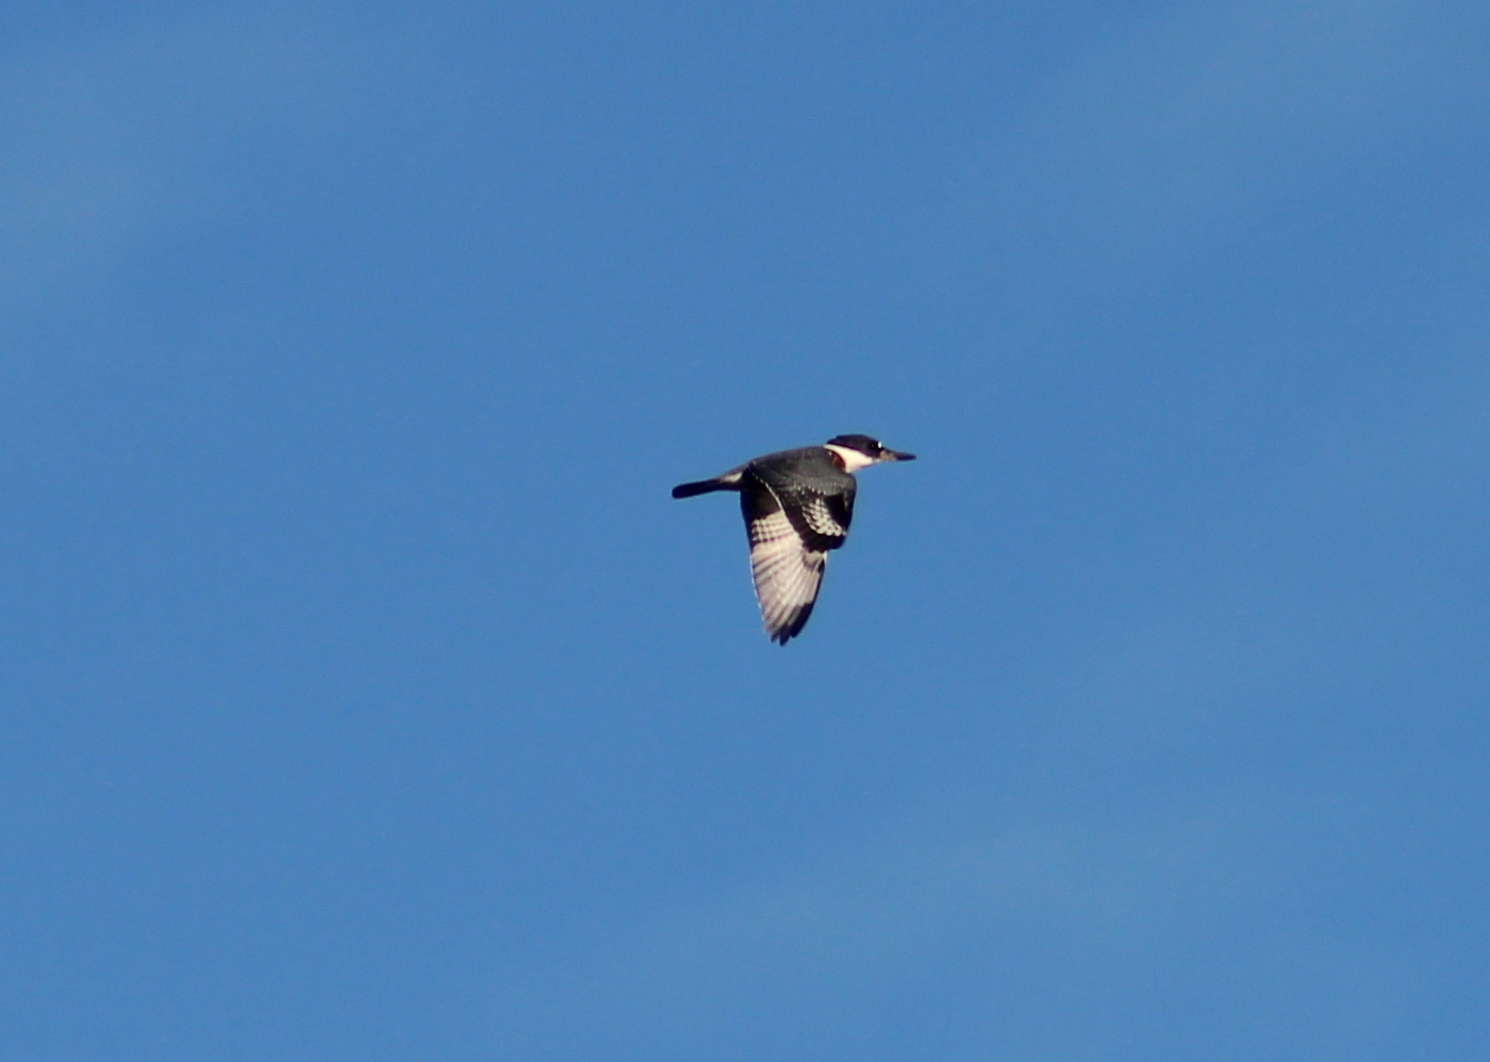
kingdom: Animalia
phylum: Chordata
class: Aves
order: Coraciiformes
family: Alcedinidae
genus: Megaceryle
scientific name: Megaceryle alcyon
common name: Belted kingfisher
